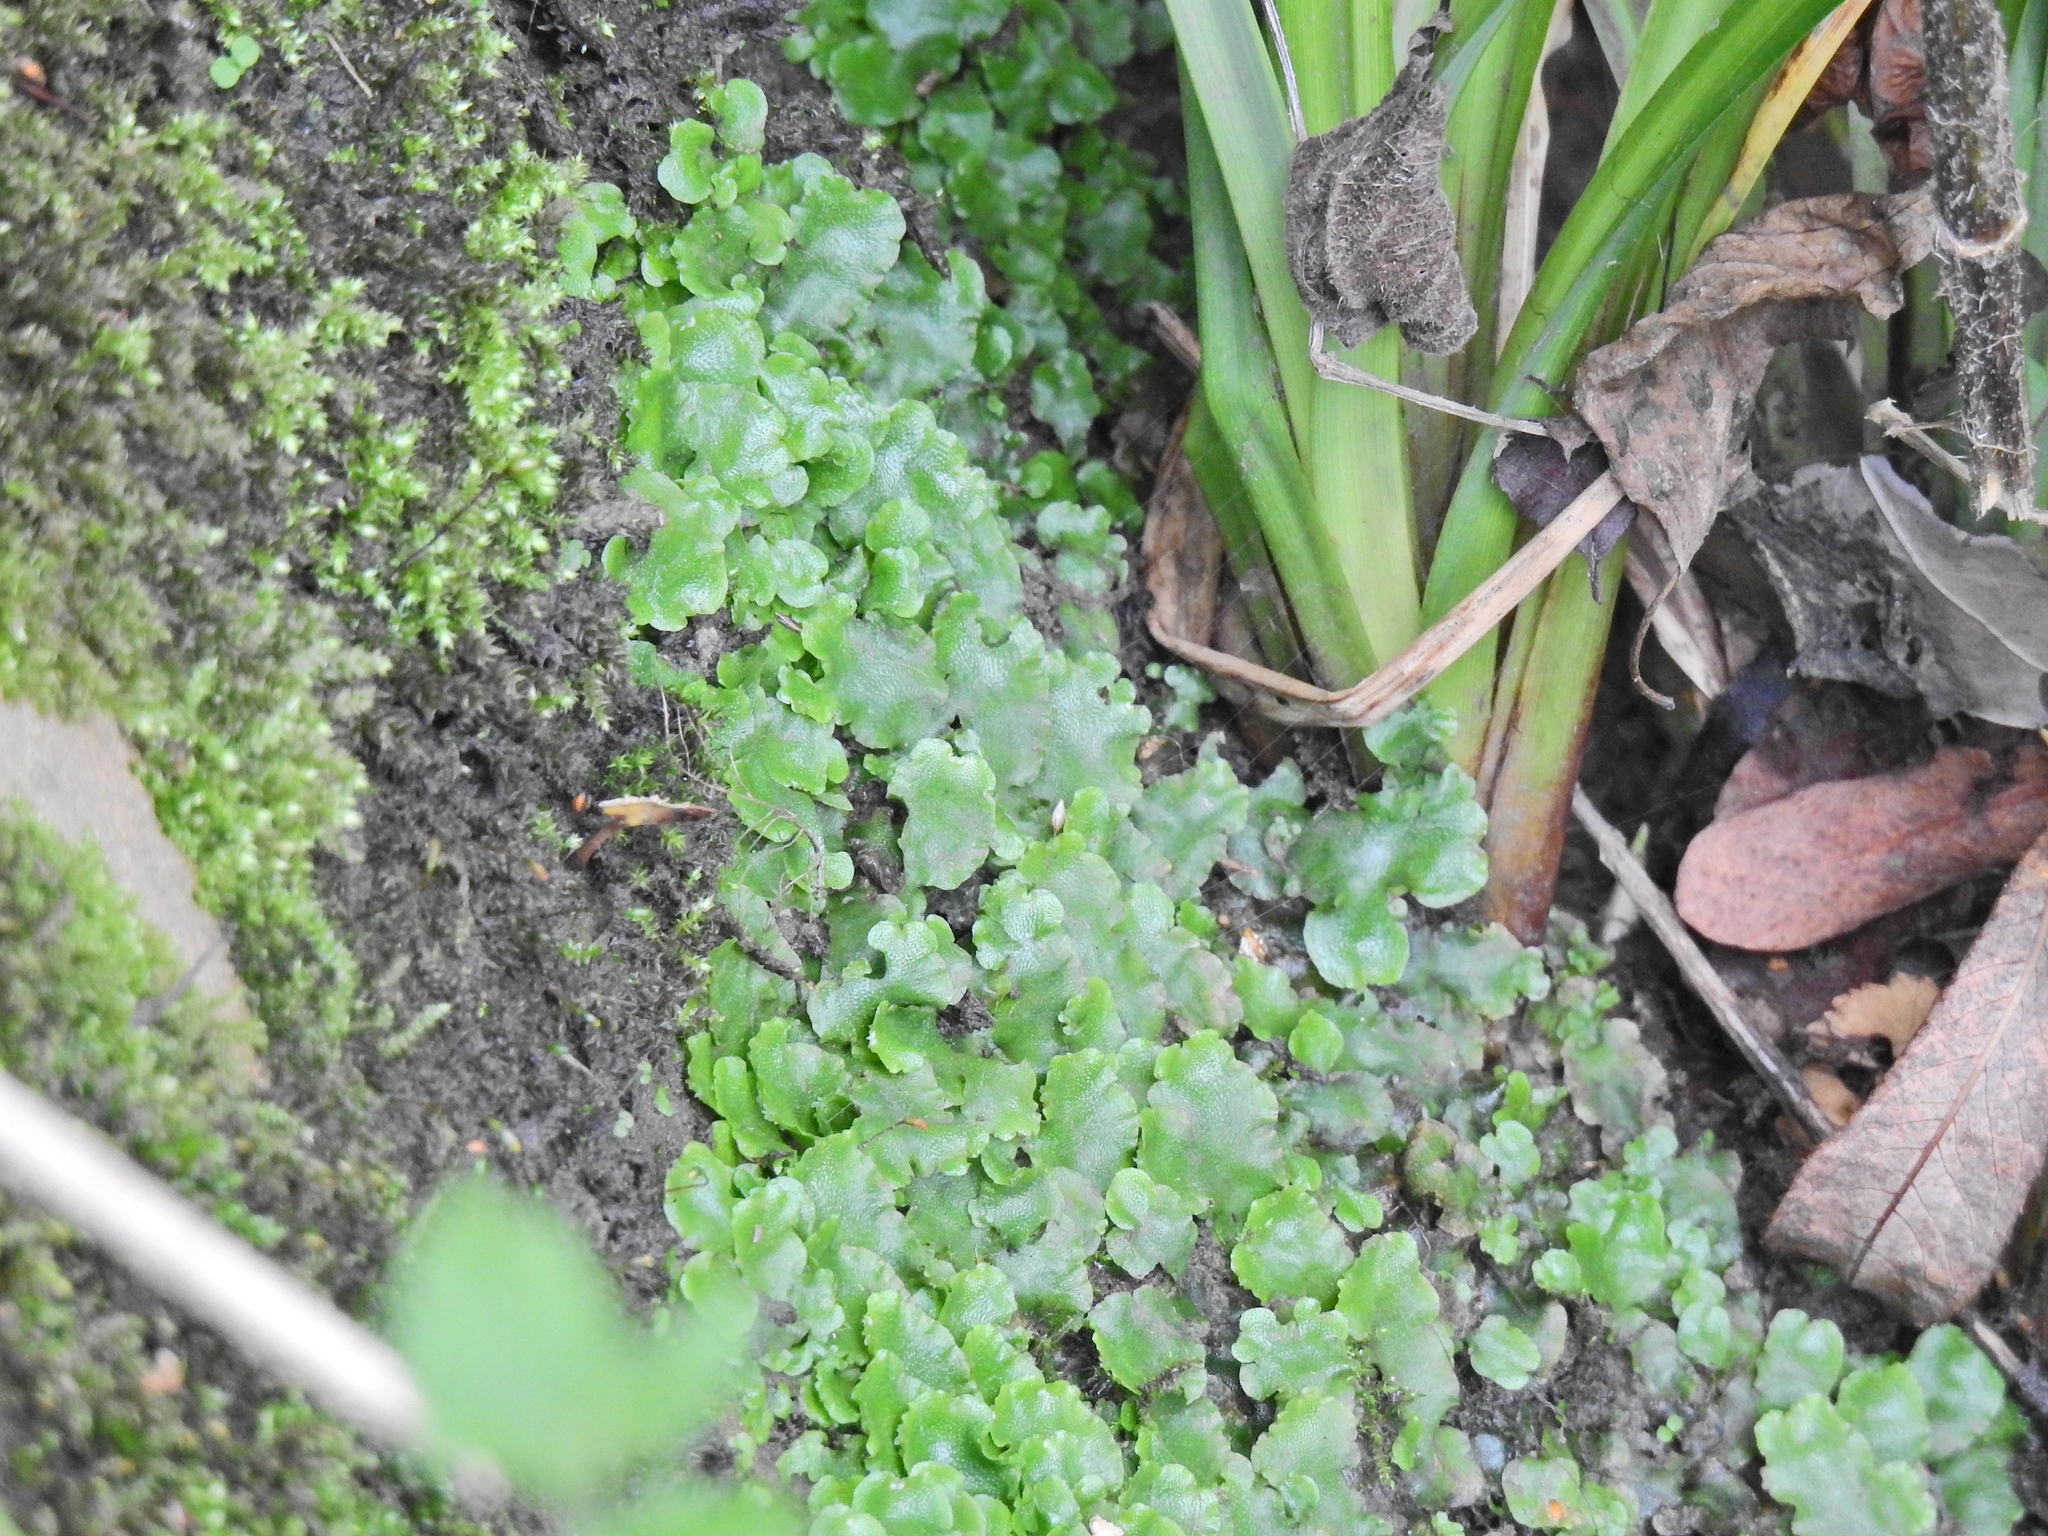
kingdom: Plantae
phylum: Marchantiophyta
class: Marchantiopsida
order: Lunulariales
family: Lunulariaceae
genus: Lunularia
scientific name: Lunularia cruciata
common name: Crescent-cup liverwort
